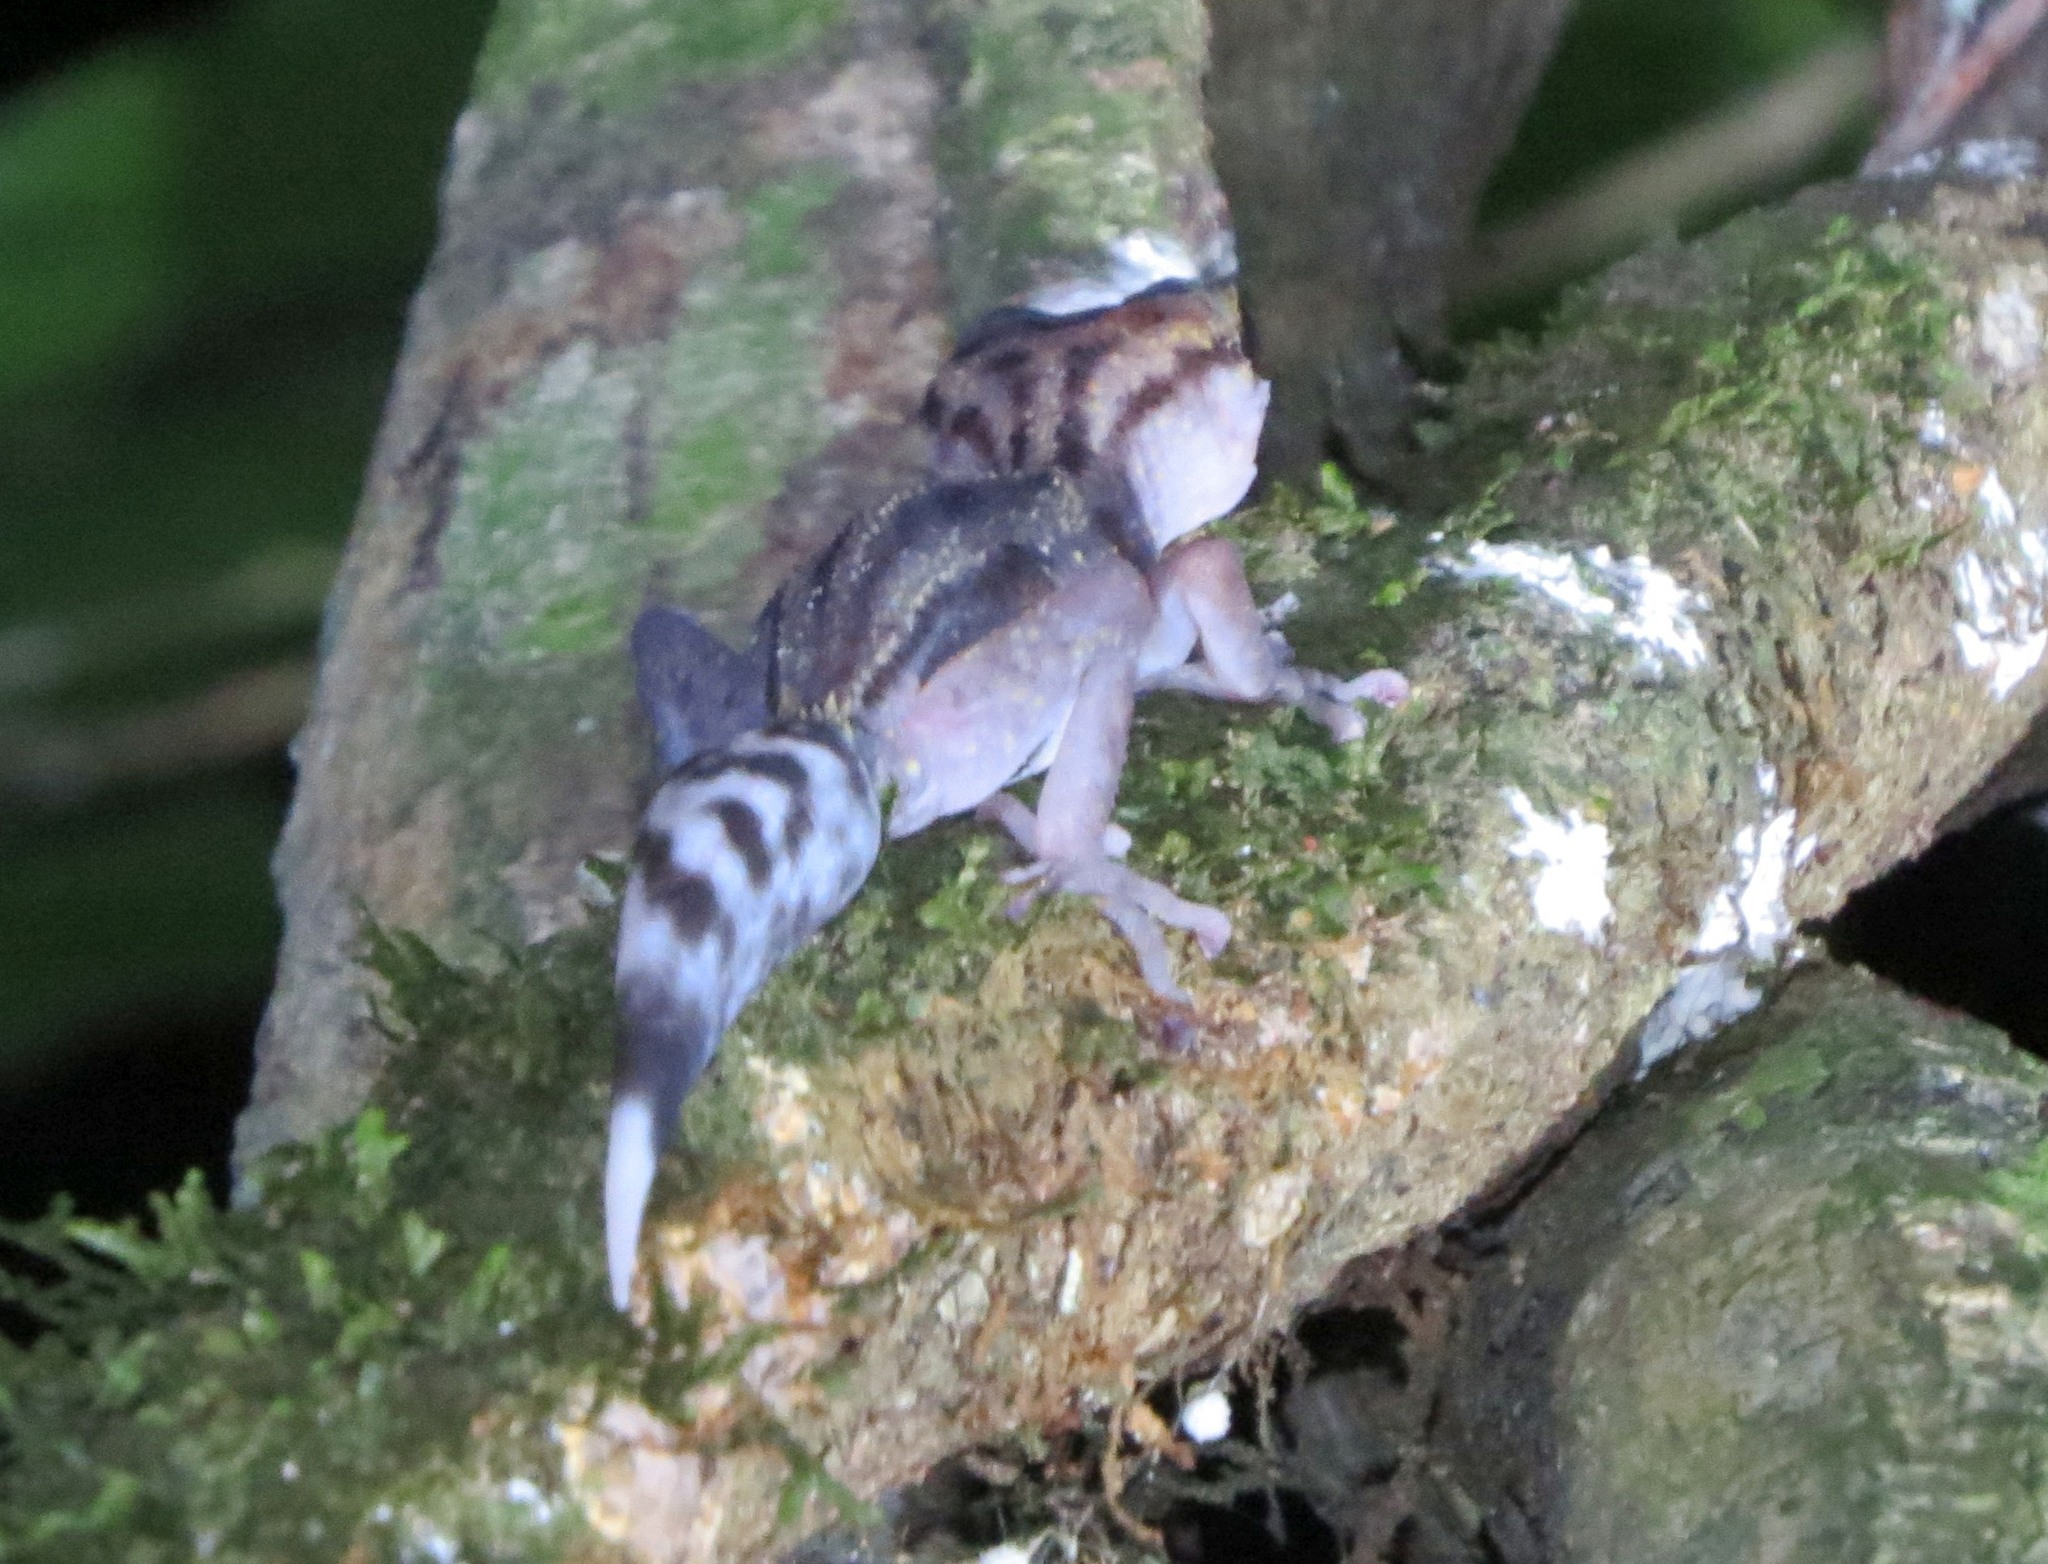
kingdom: Animalia
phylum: Chordata
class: Squamata
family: Gekkonidae
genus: Paroedura
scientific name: Paroedura gracilis
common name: Graceful madagascar ground gecko
